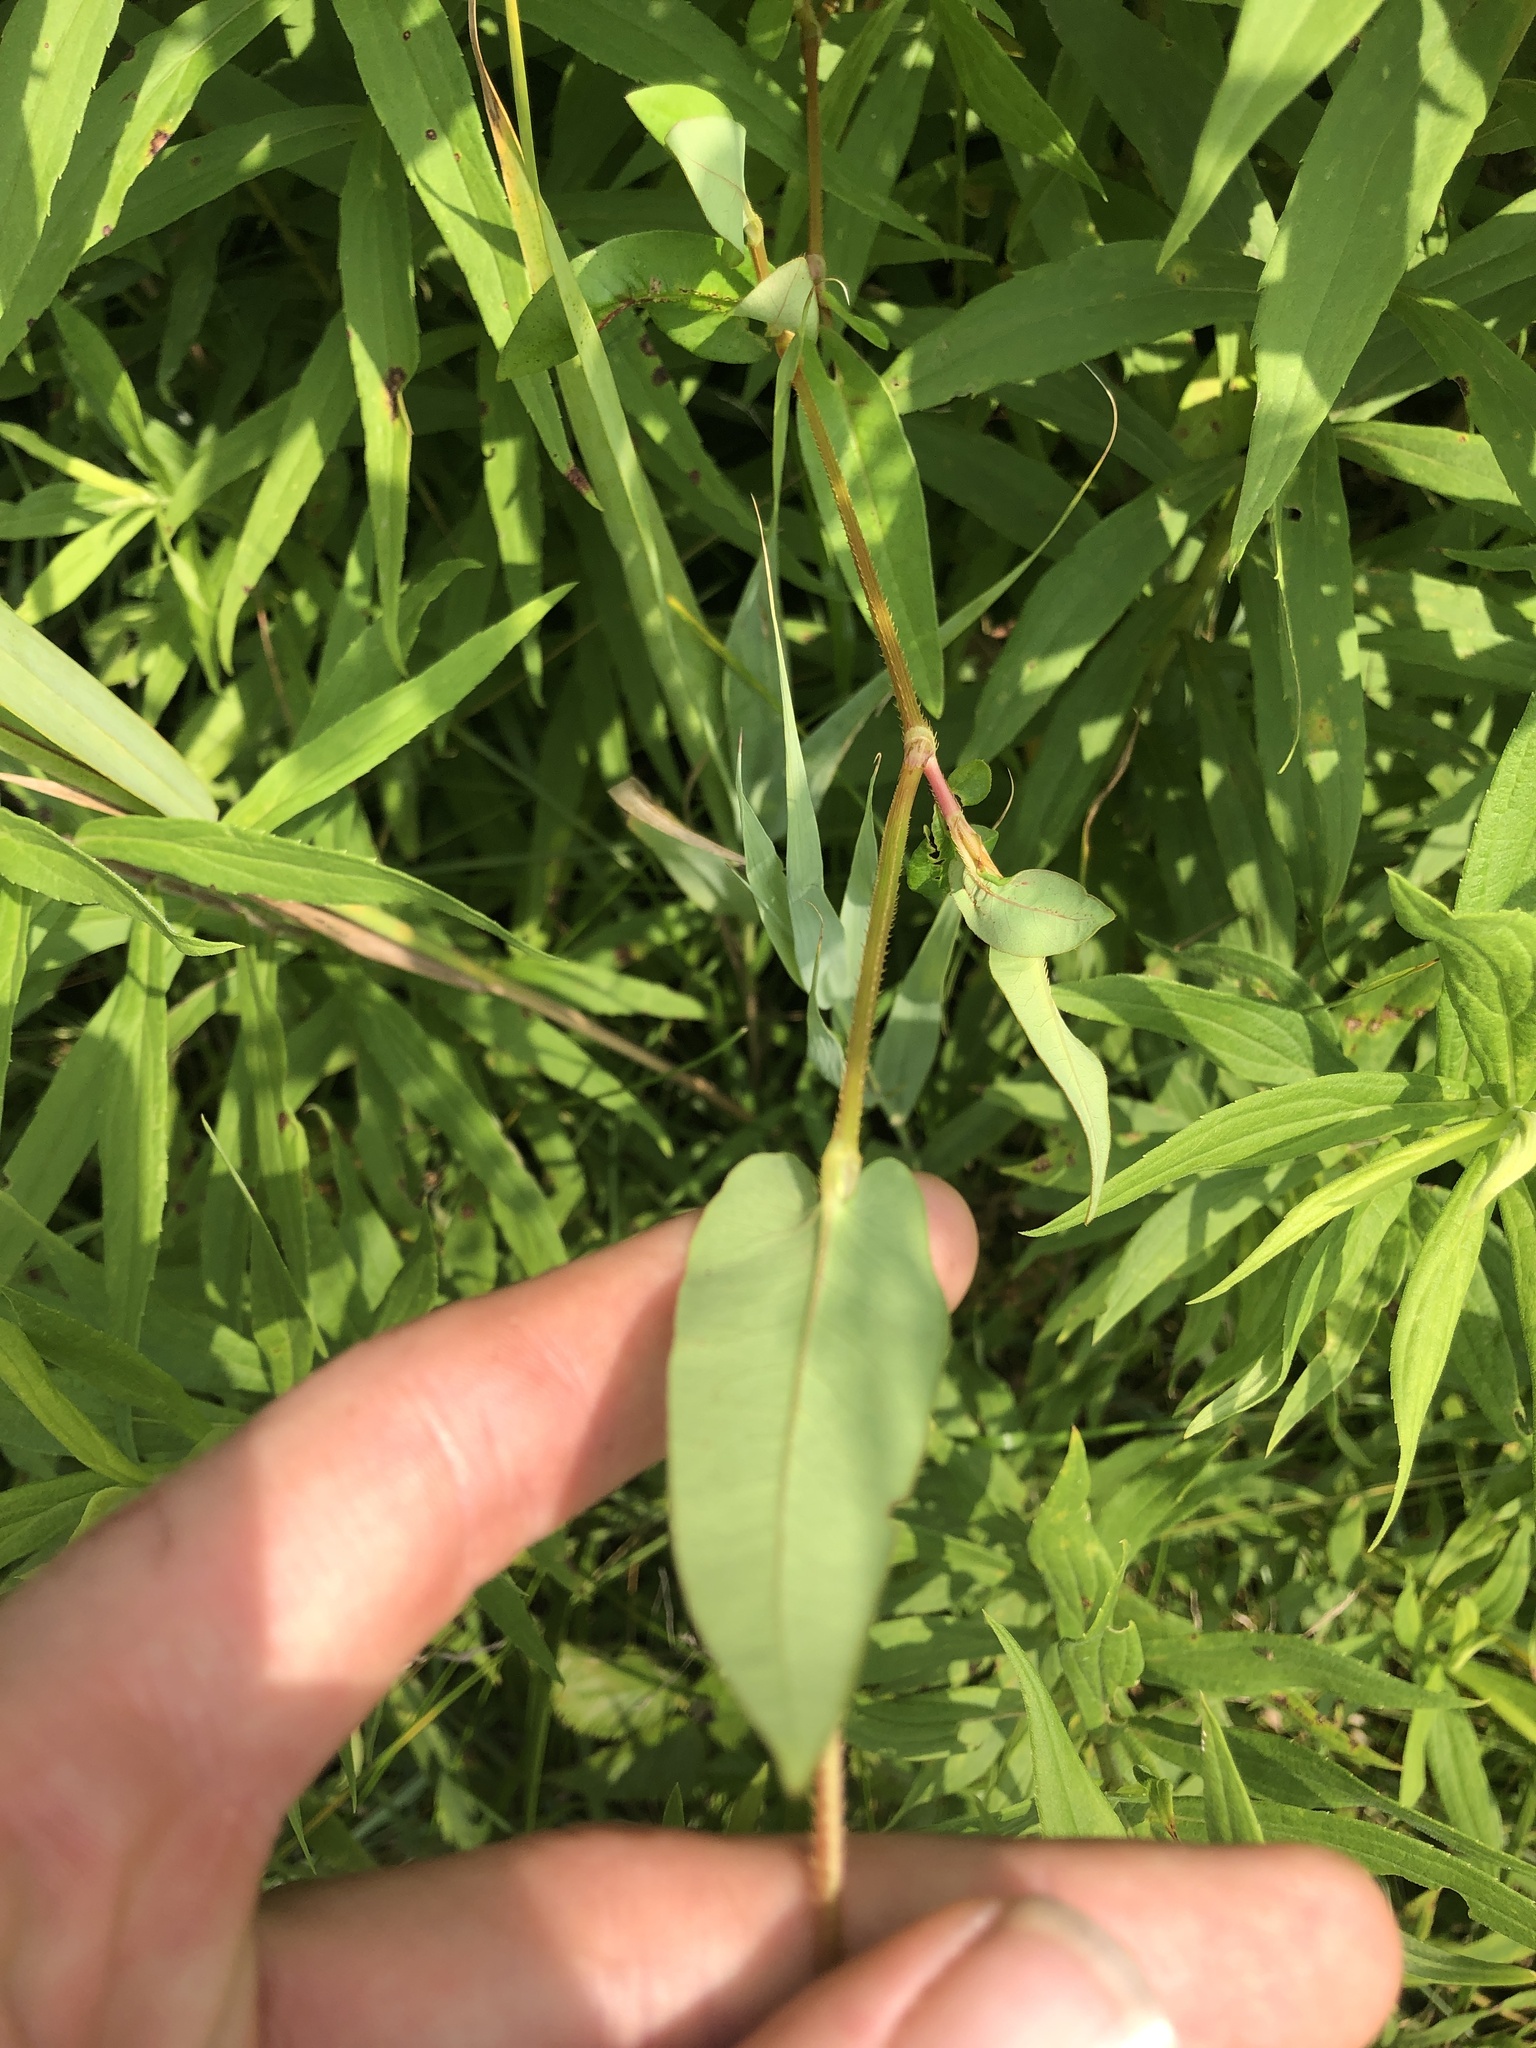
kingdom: Plantae
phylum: Tracheophyta
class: Magnoliopsida
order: Caryophyllales
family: Polygonaceae
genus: Persicaria
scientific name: Persicaria sagittata
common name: American tearthumb
